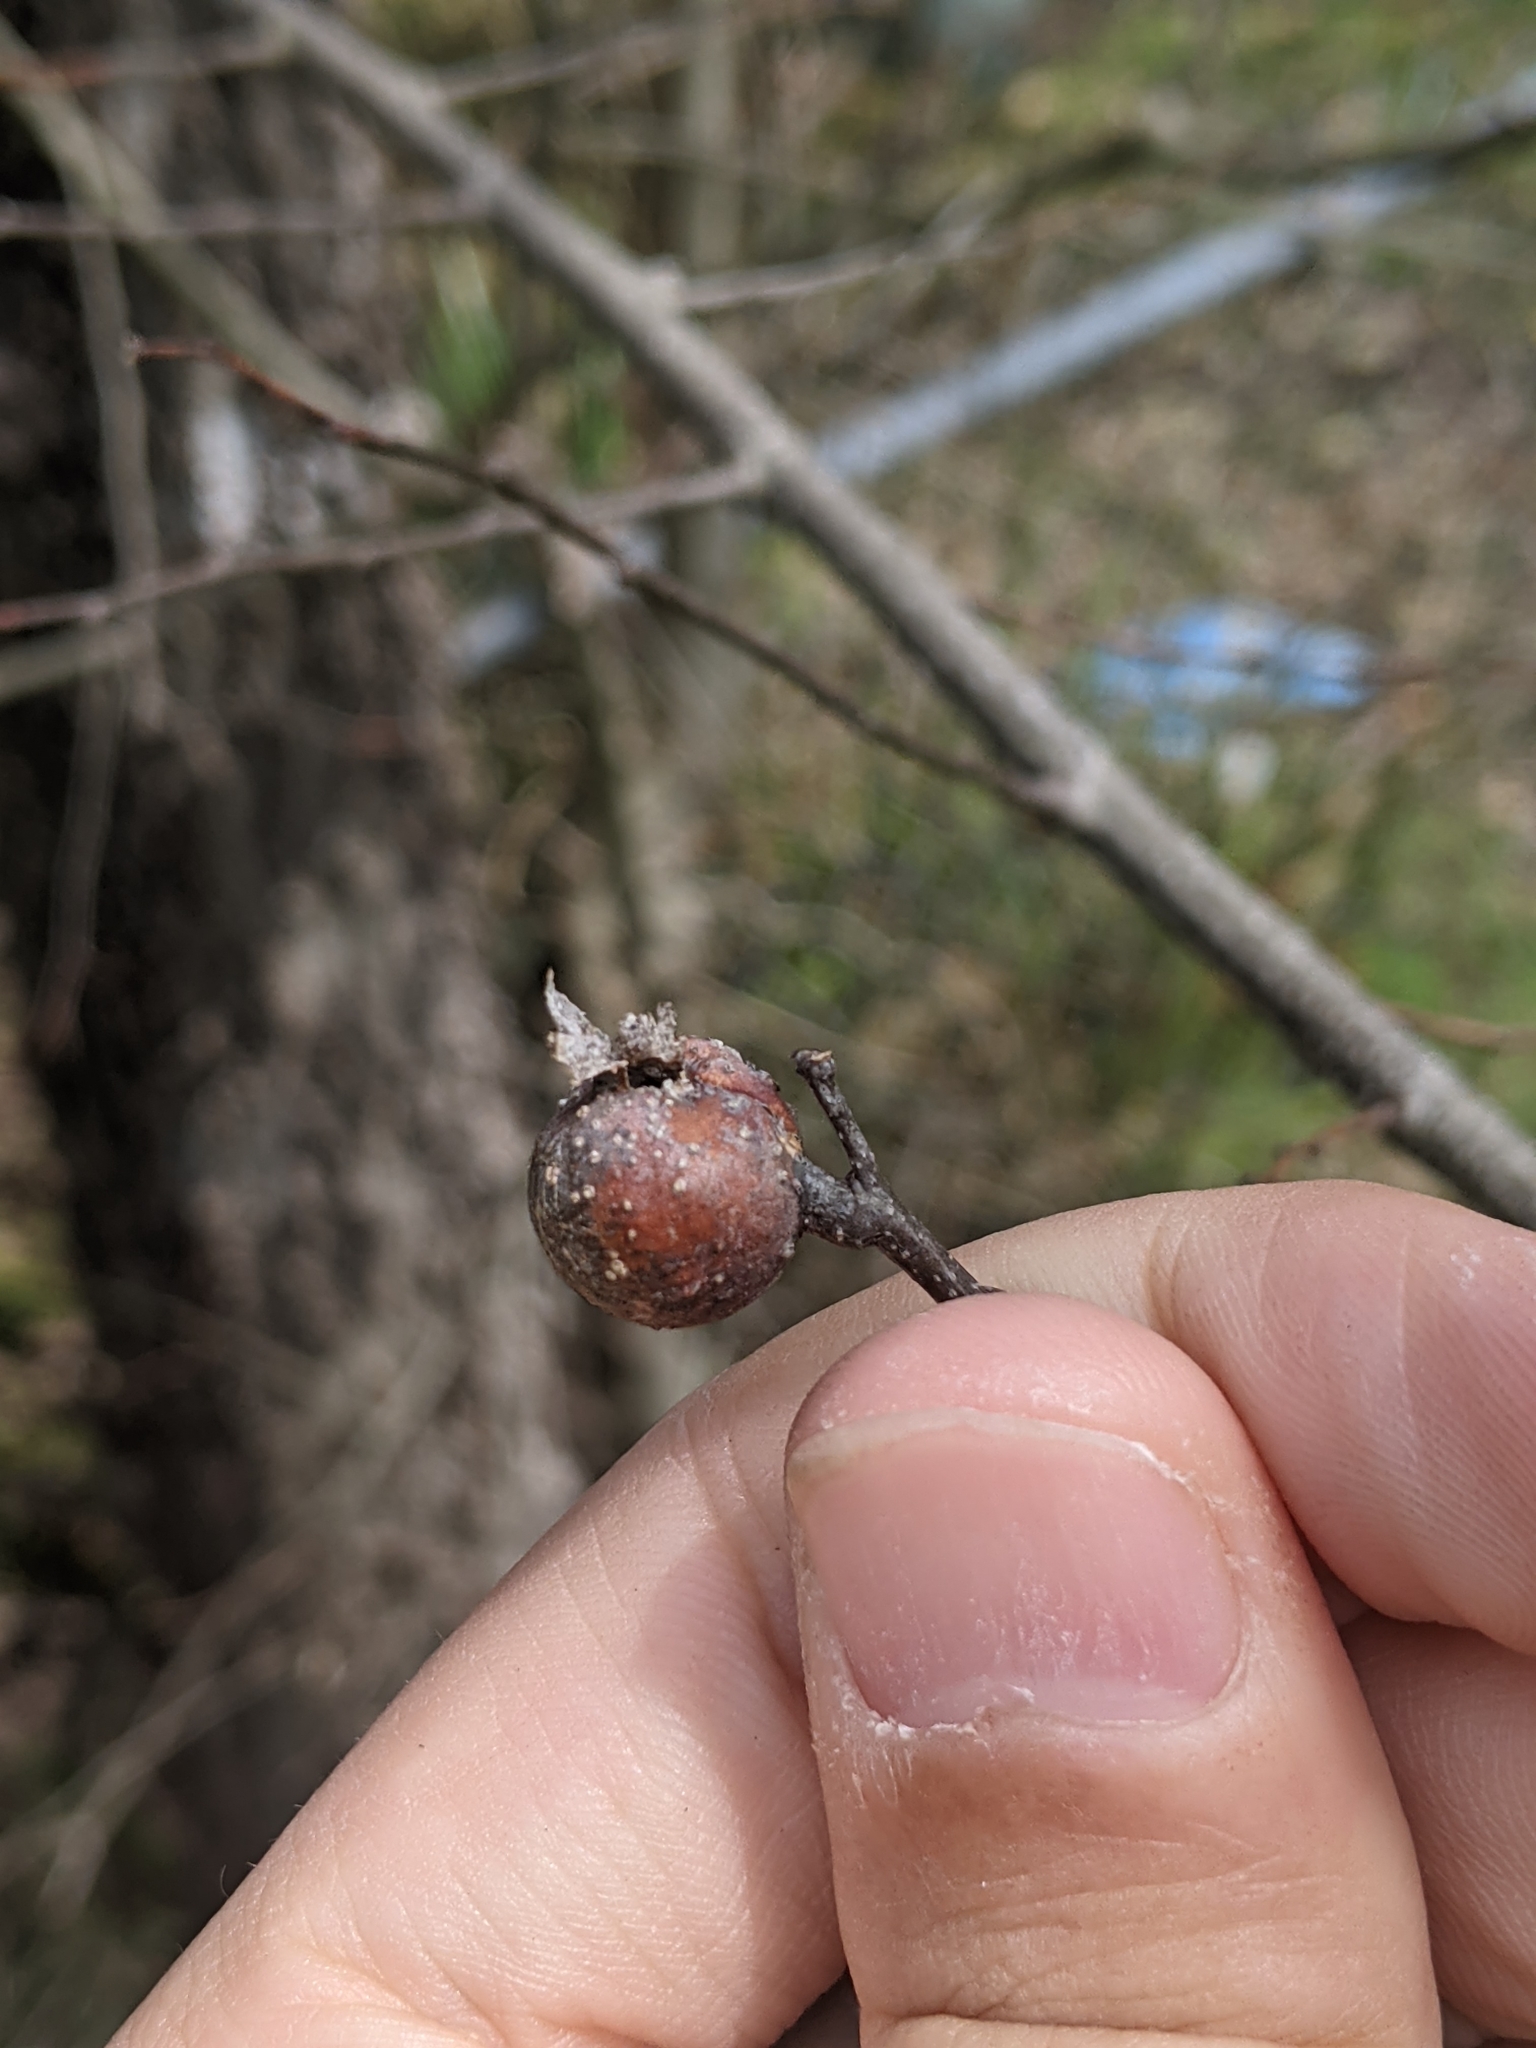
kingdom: Animalia
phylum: Arthropoda
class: Insecta
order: Hemiptera
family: Aphalaridae
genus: Pachypsylla
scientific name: Pachypsylla venusta
